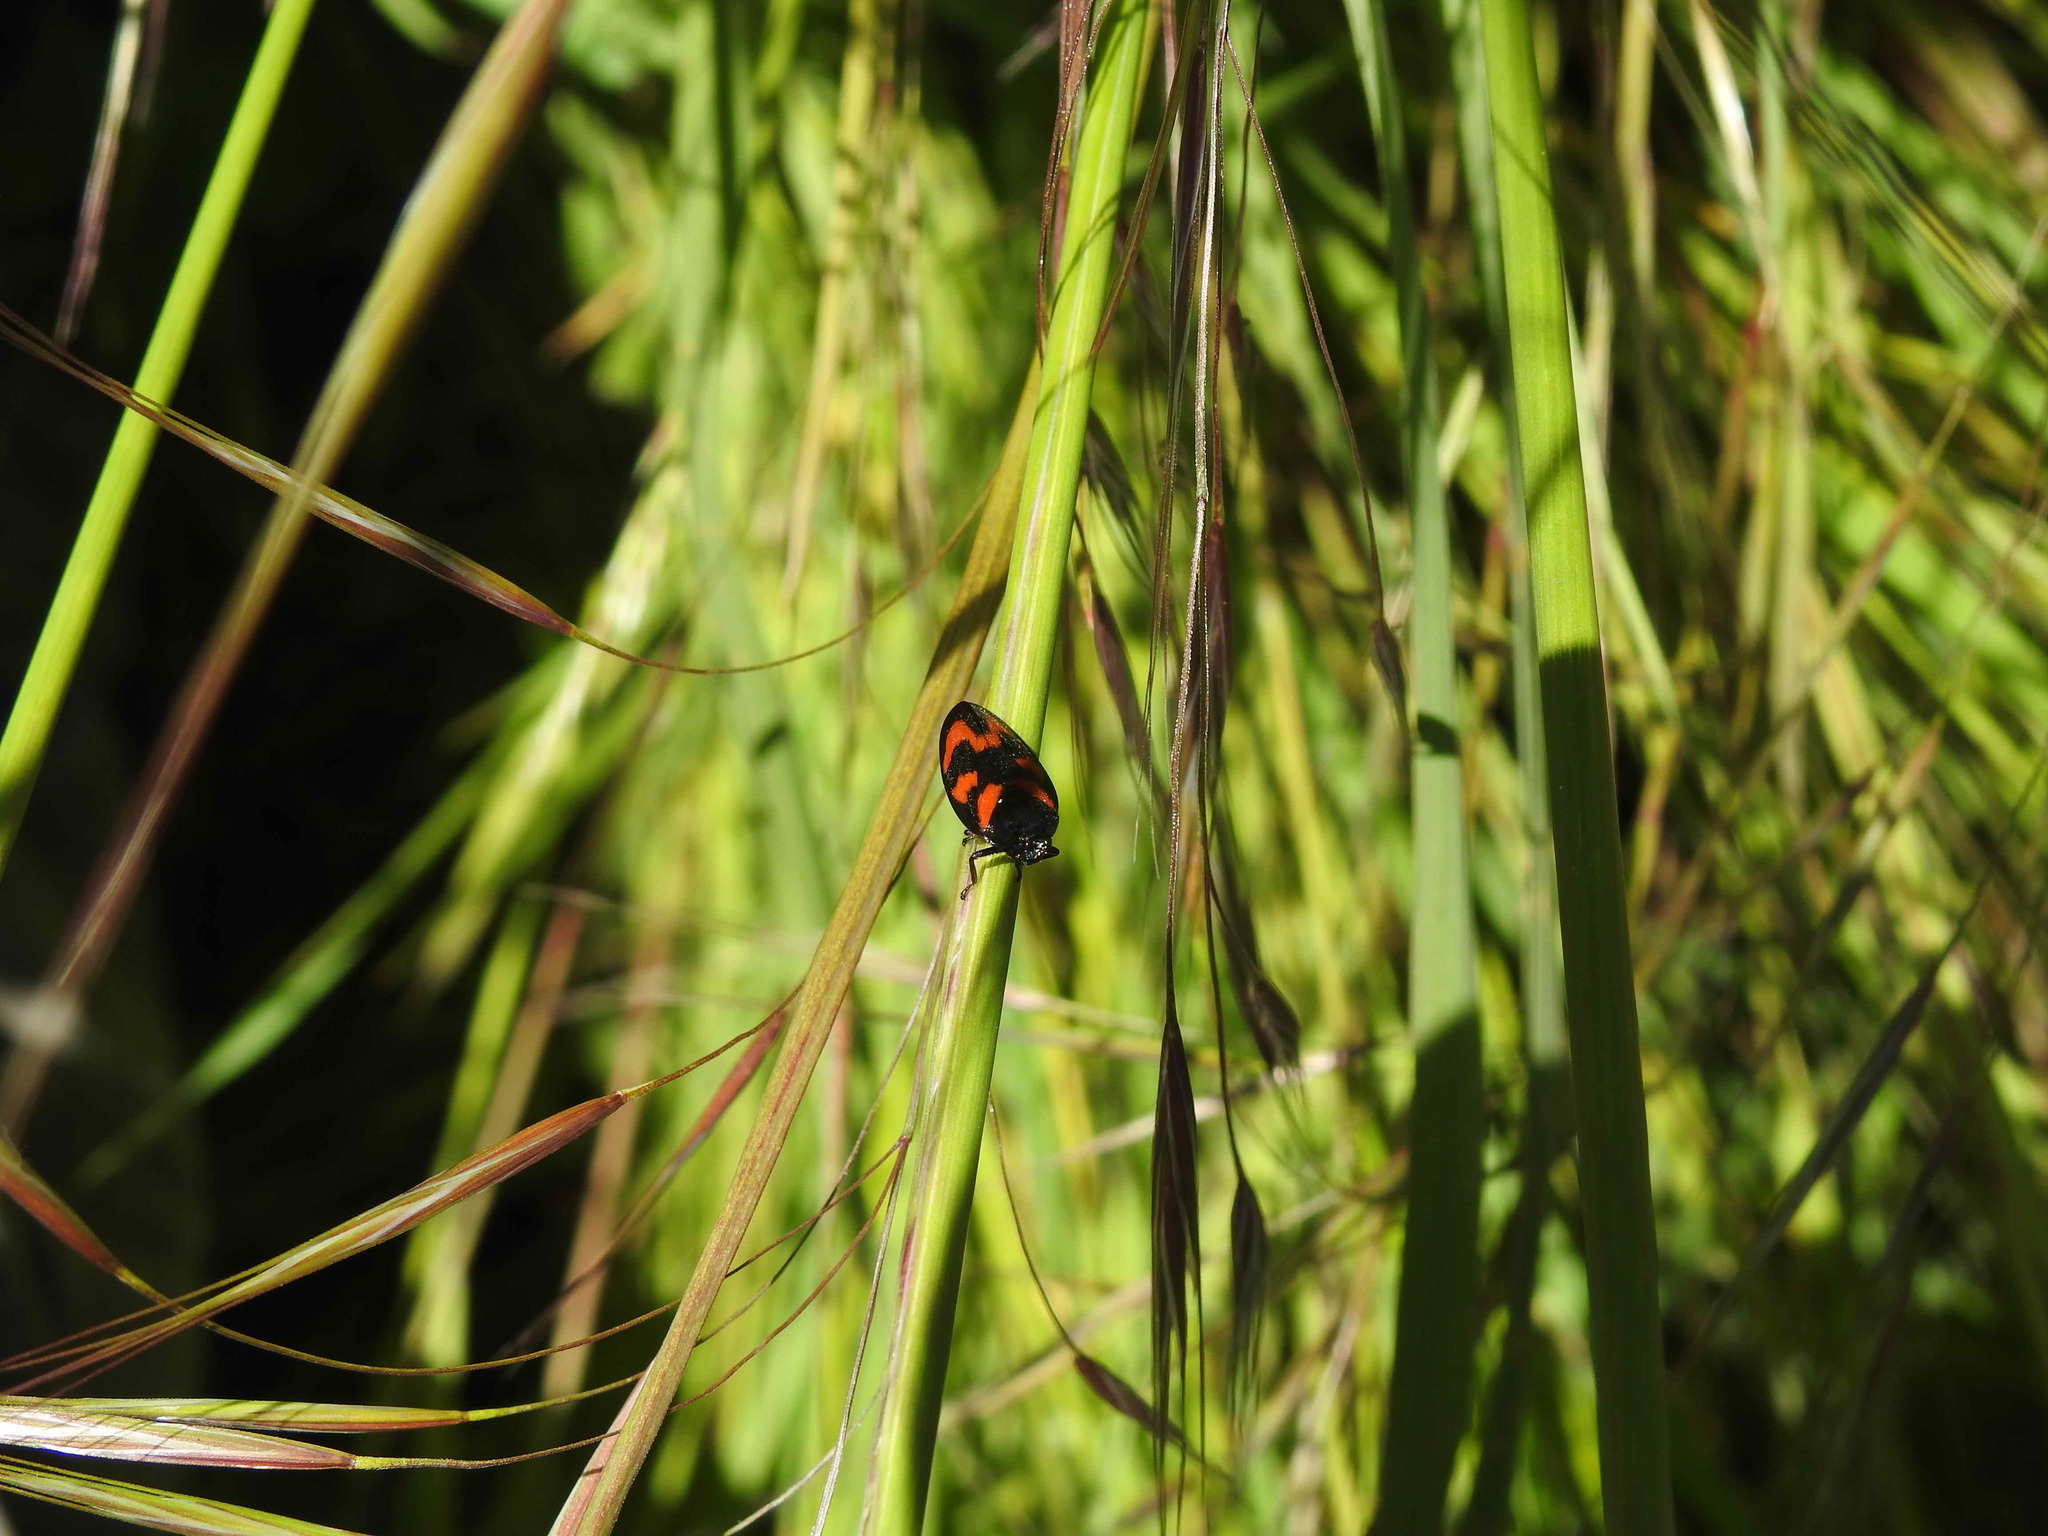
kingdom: Animalia
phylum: Arthropoda
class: Insecta
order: Hemiptera
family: Cercopidae
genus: Cercopis
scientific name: Cercopis vulnerata
